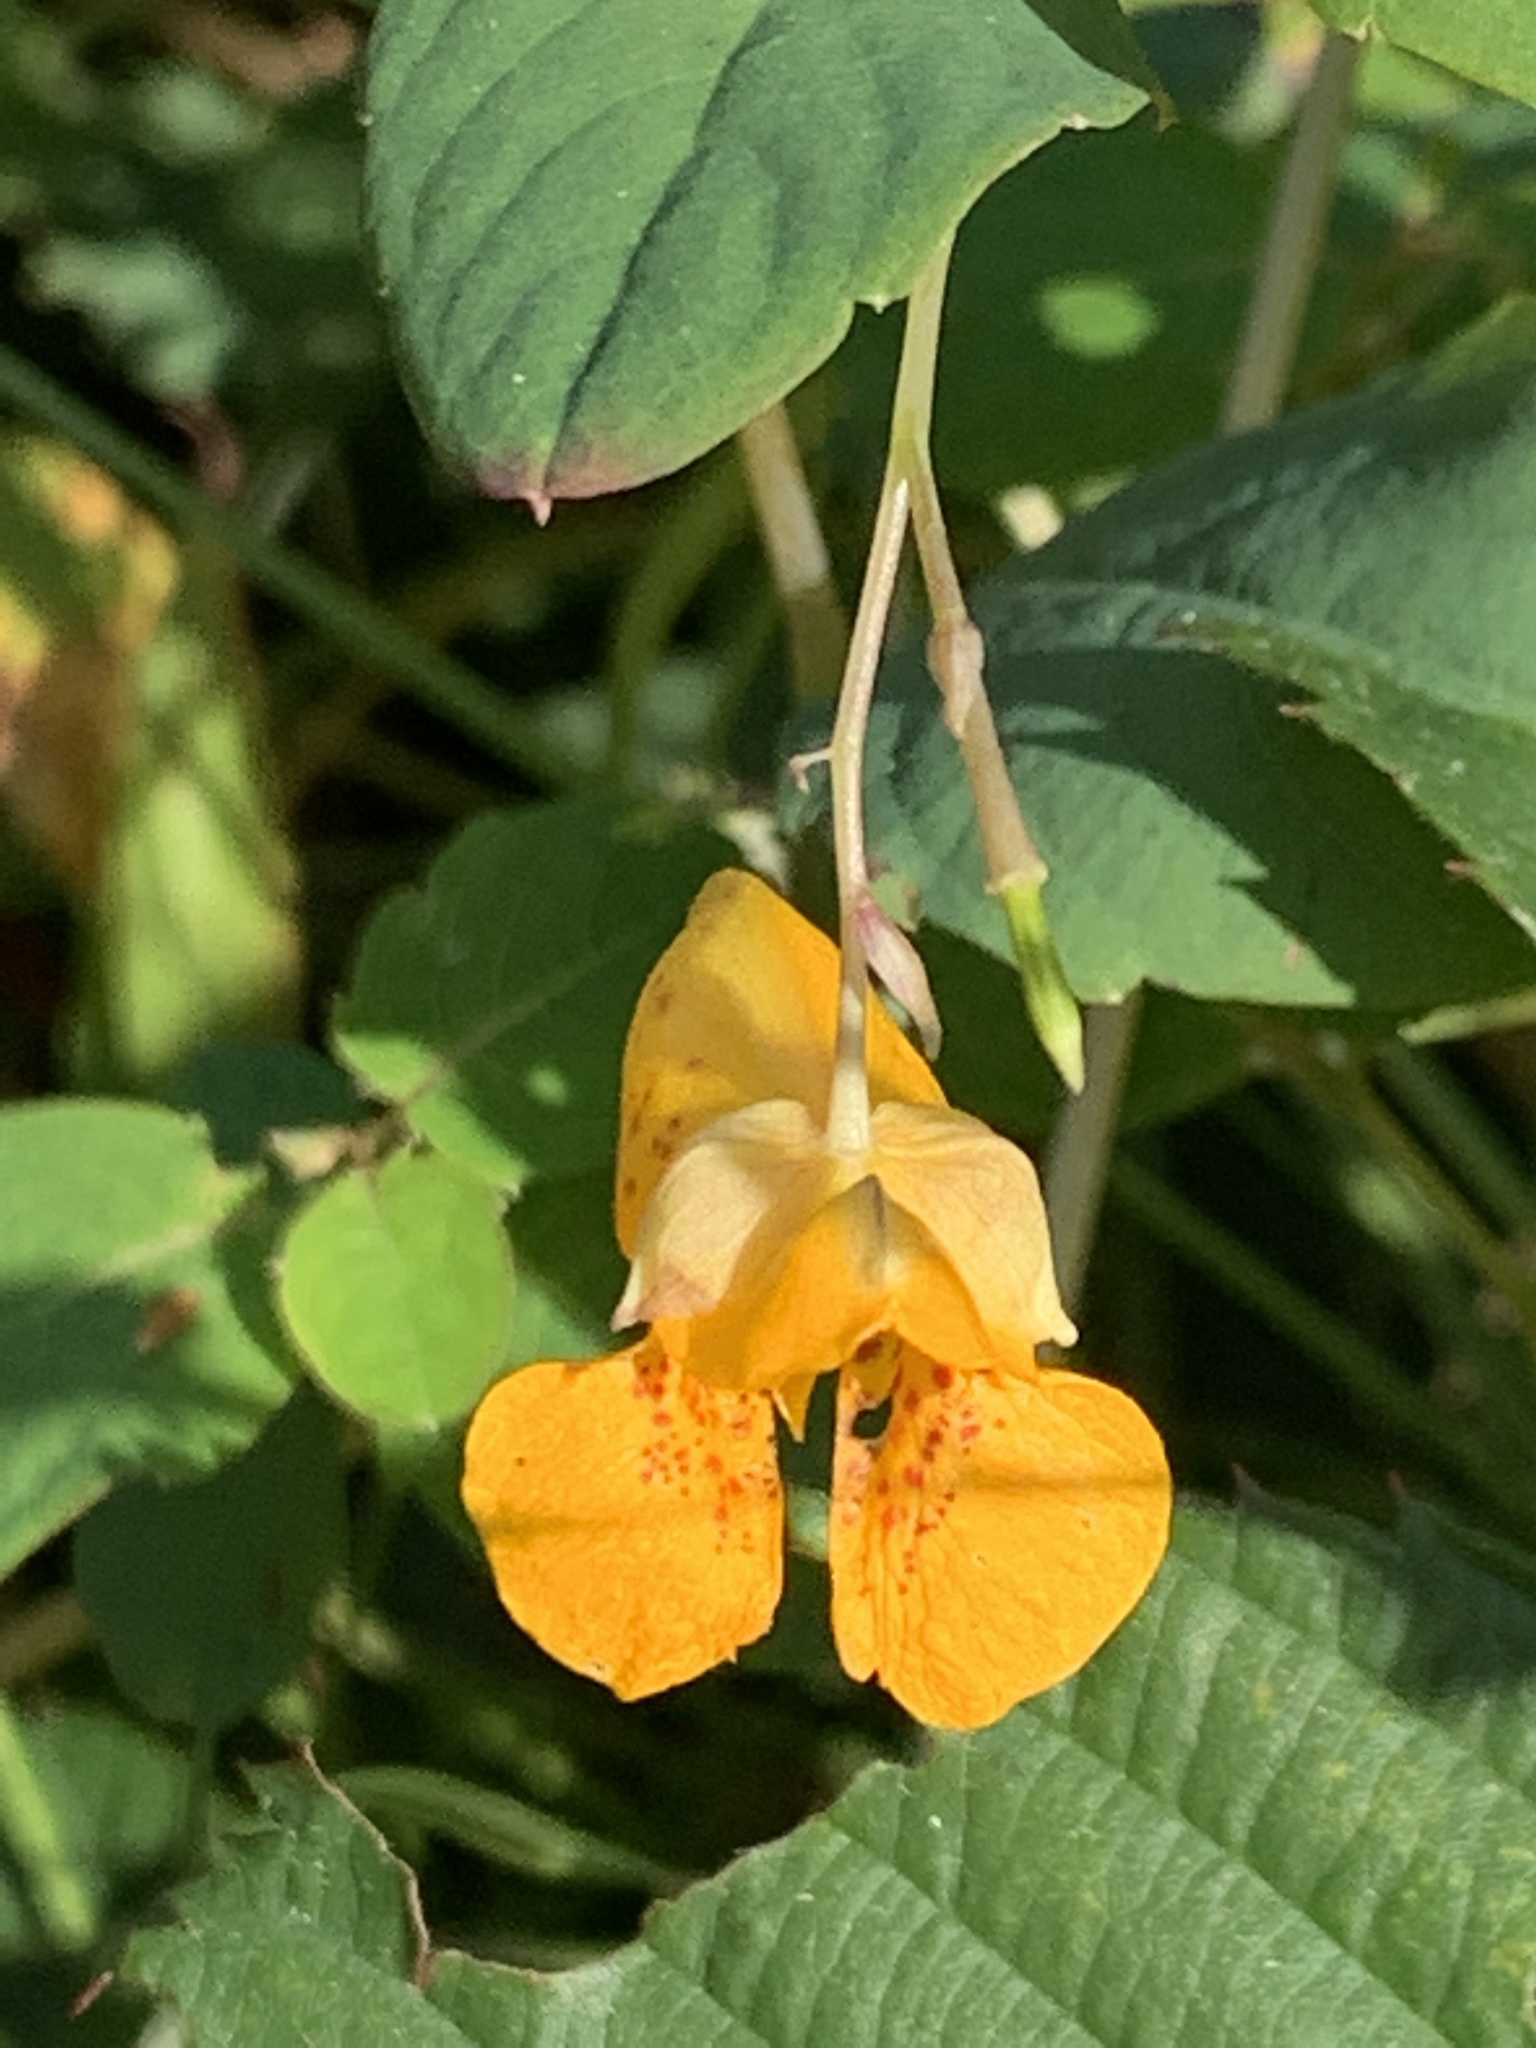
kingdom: Plantae
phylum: Tracheophyta
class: Magnoliopsida
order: Ericales
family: Balsaminaceae
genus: Impatiens
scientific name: Impatiens capensis
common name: Orange balsam
